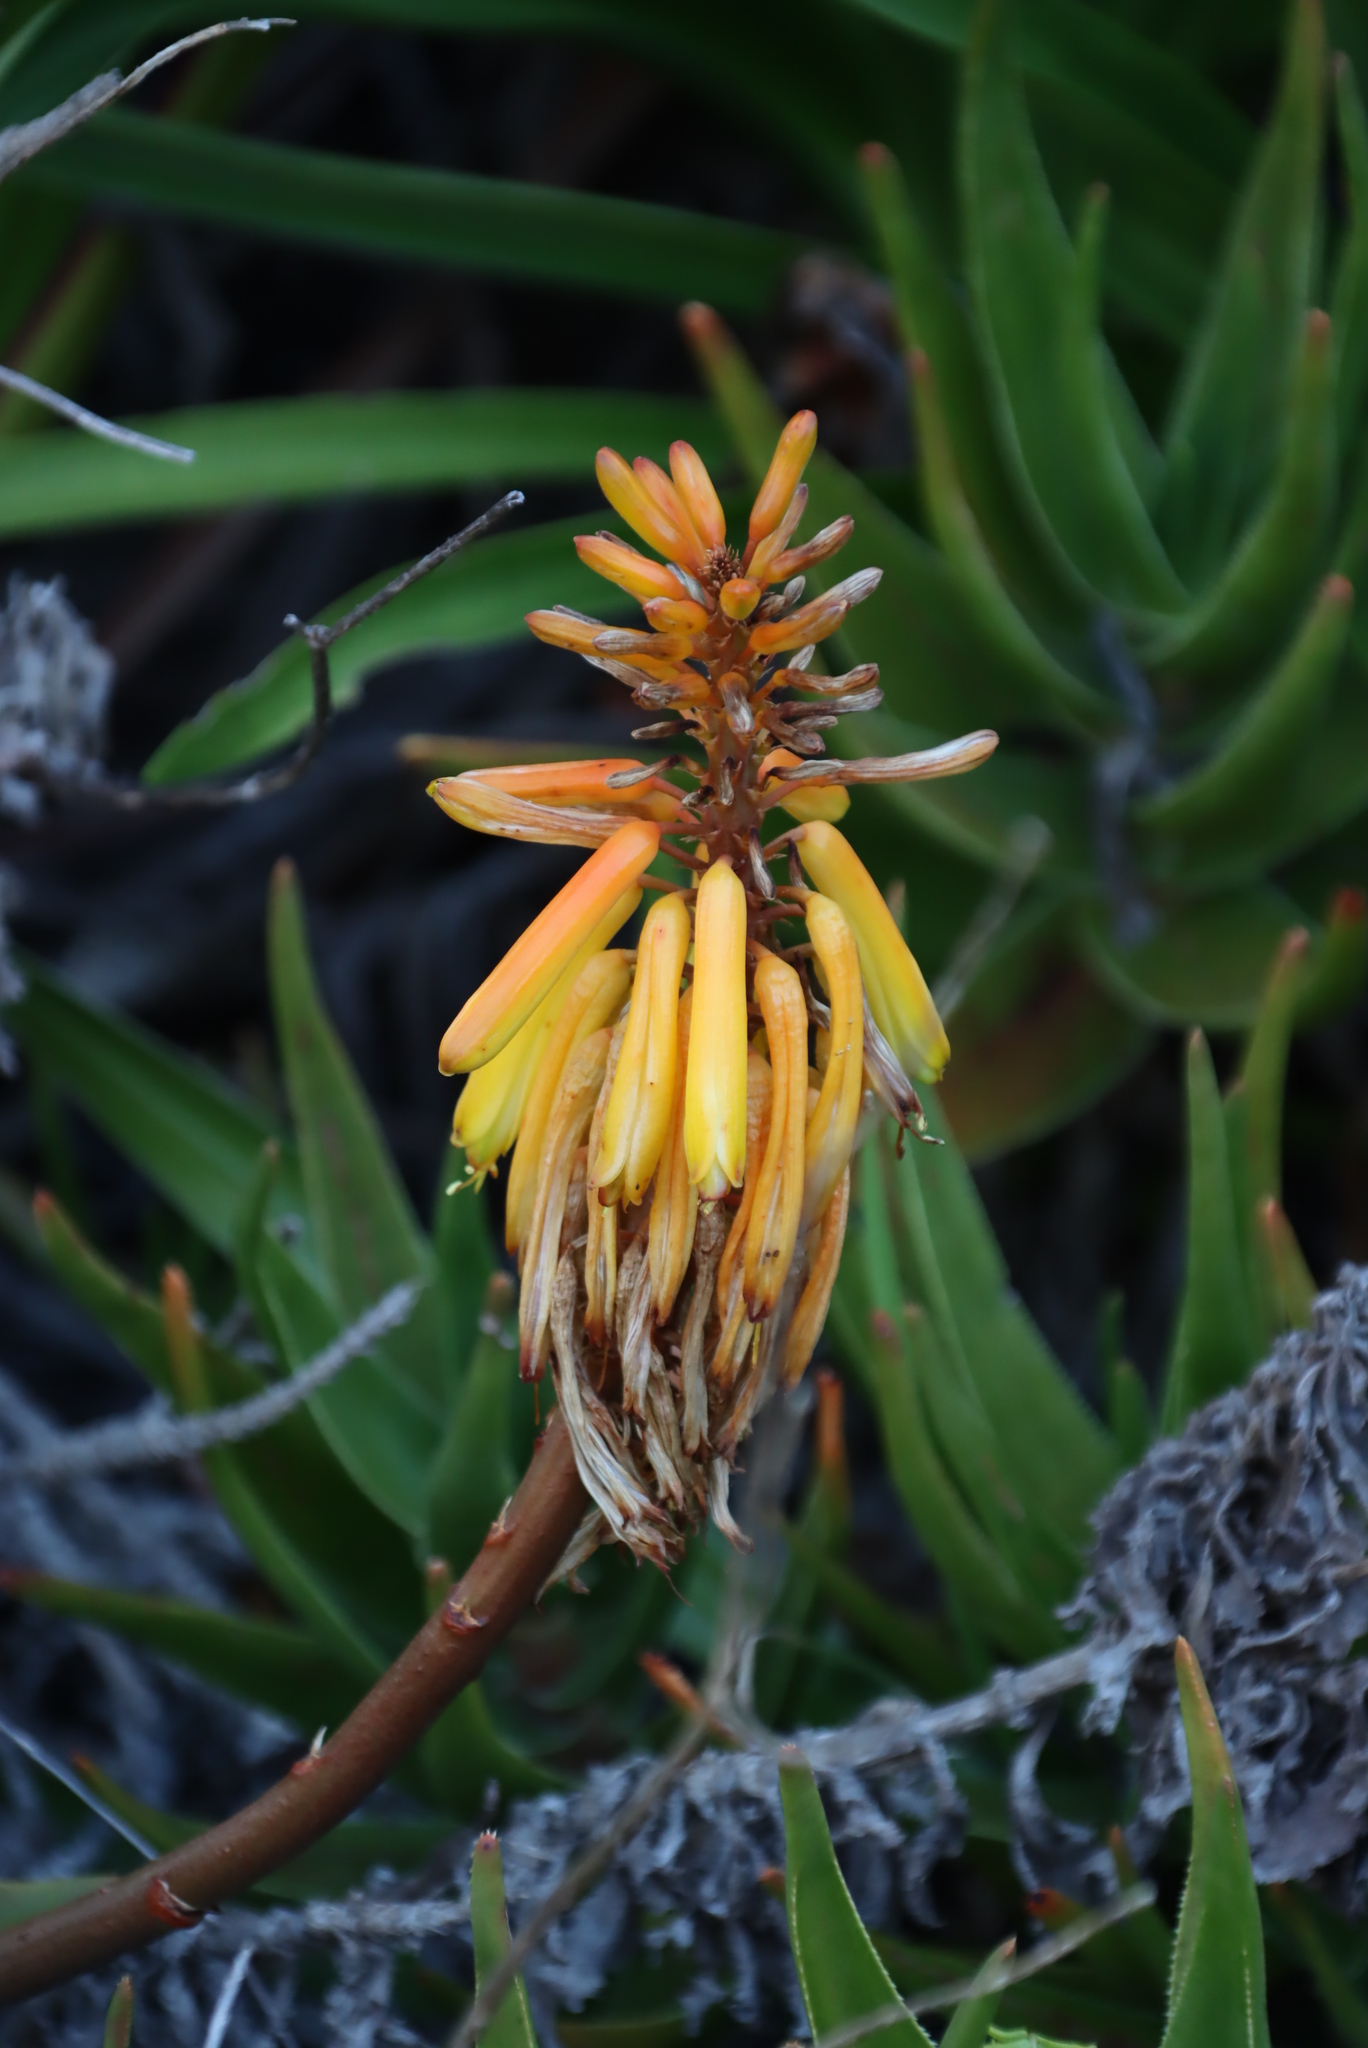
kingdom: Plantae
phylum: Tracheophyta
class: Liliopsida
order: Asparagales
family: Asphodelaceae
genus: Aloiampelos
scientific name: Aloiampelos commixta
